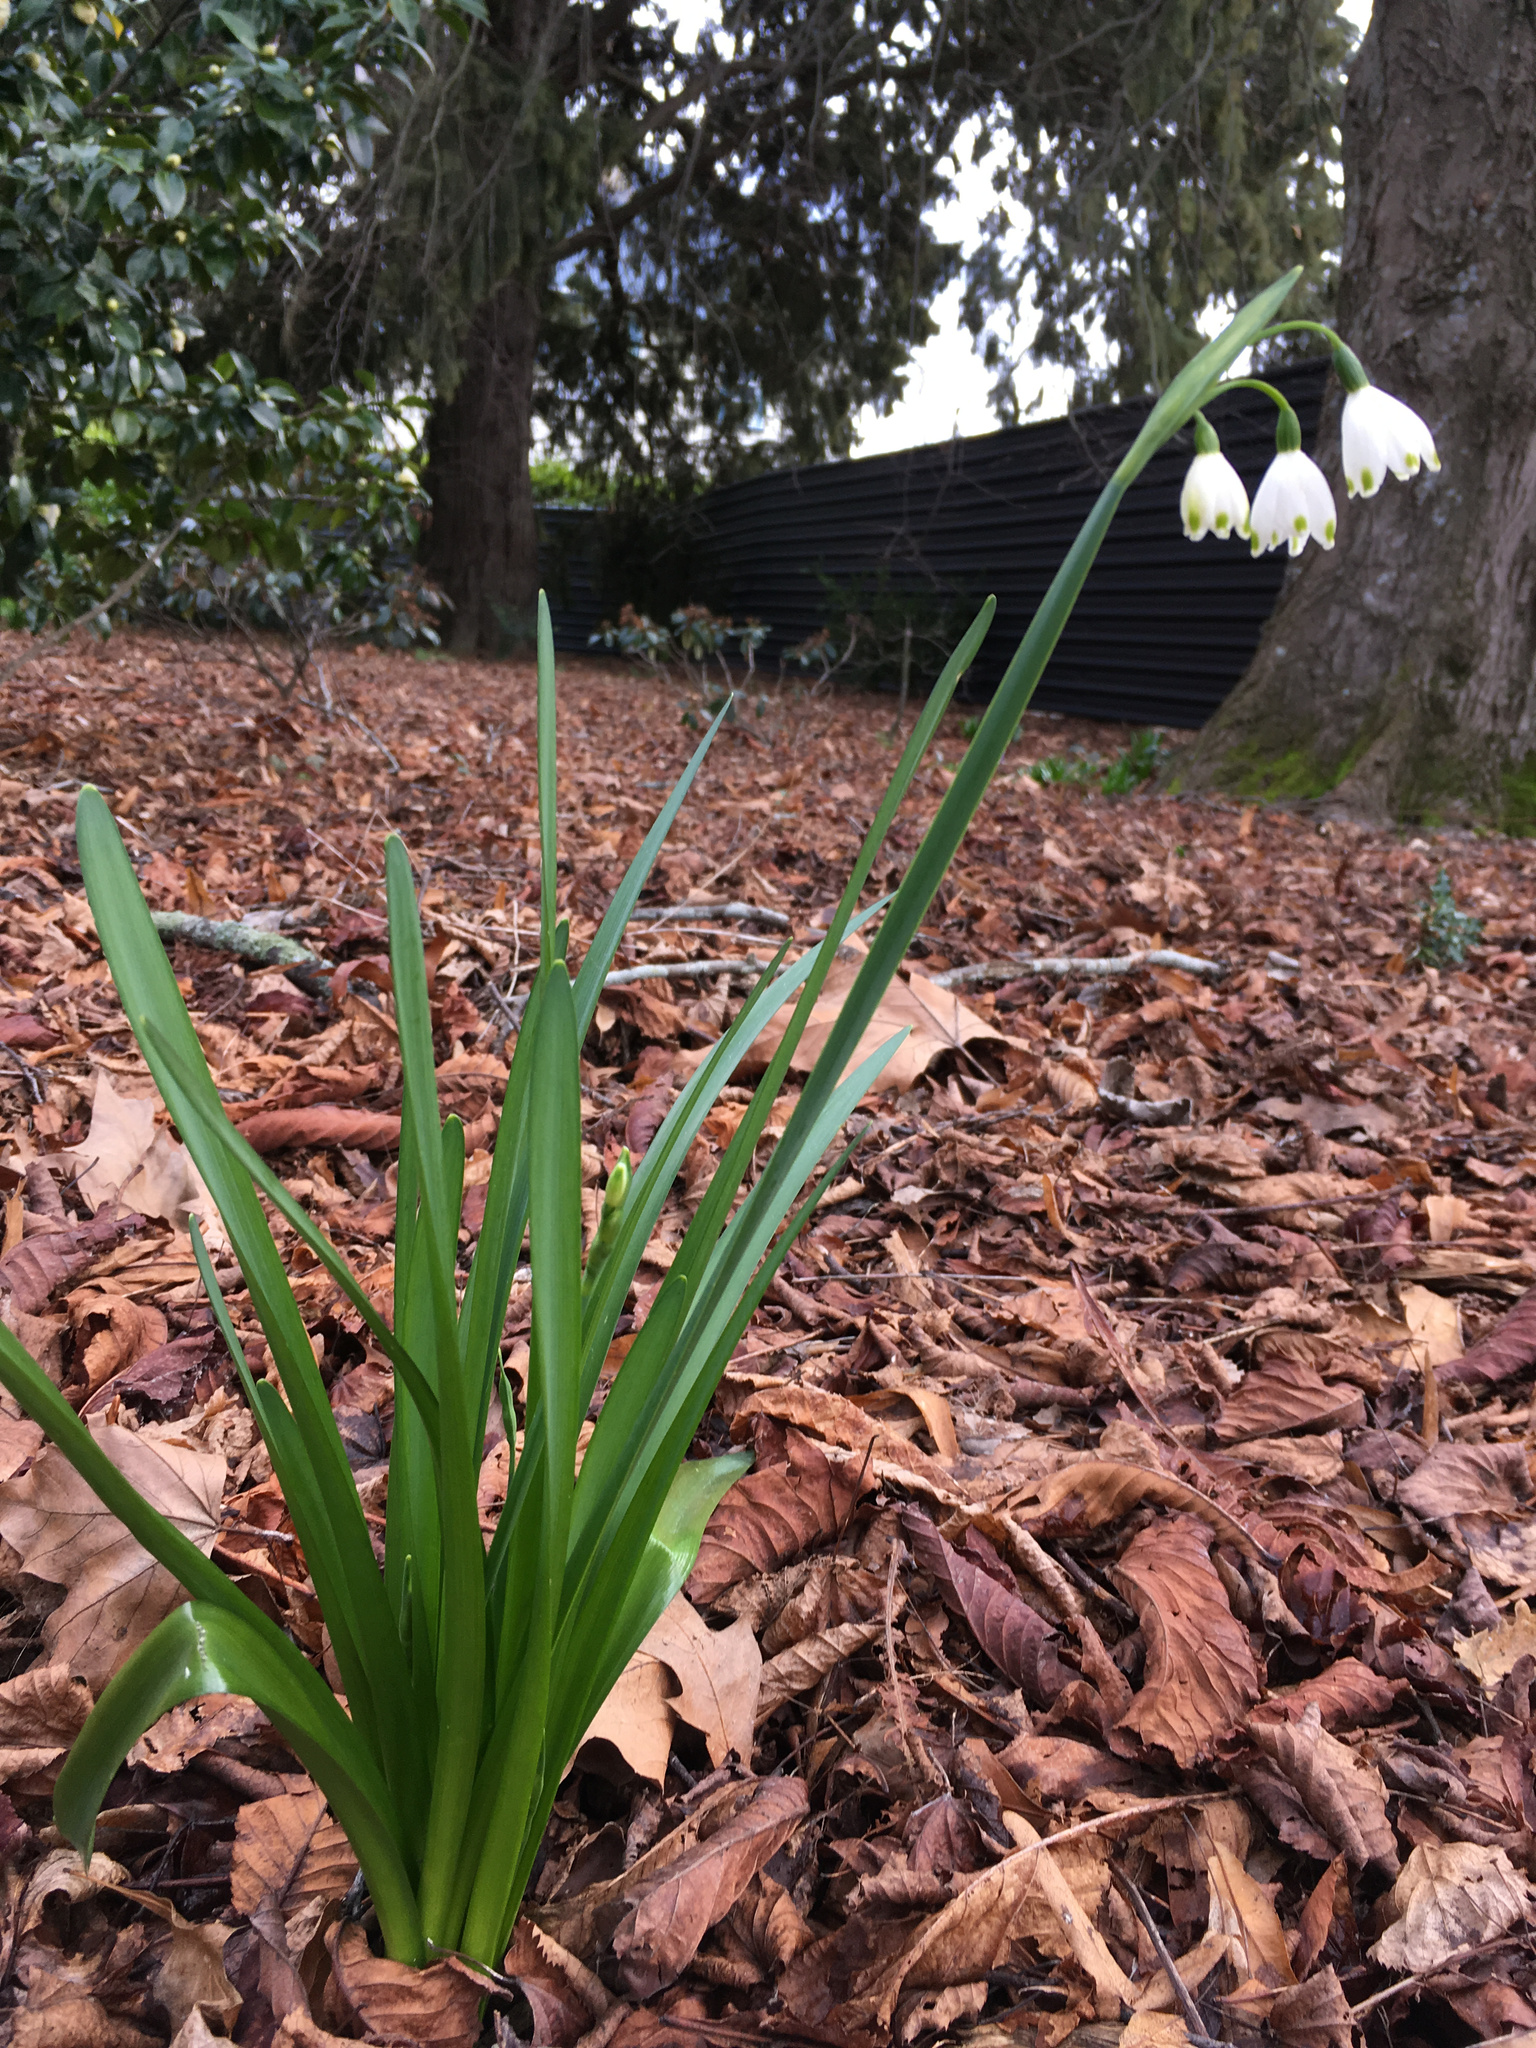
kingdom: Plantae
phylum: Tracheophyta
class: Liliopsida
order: Asparagales
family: Amaryllidaceae
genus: Leucojum
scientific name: Leucojum aestivum
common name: Summer snowflake
